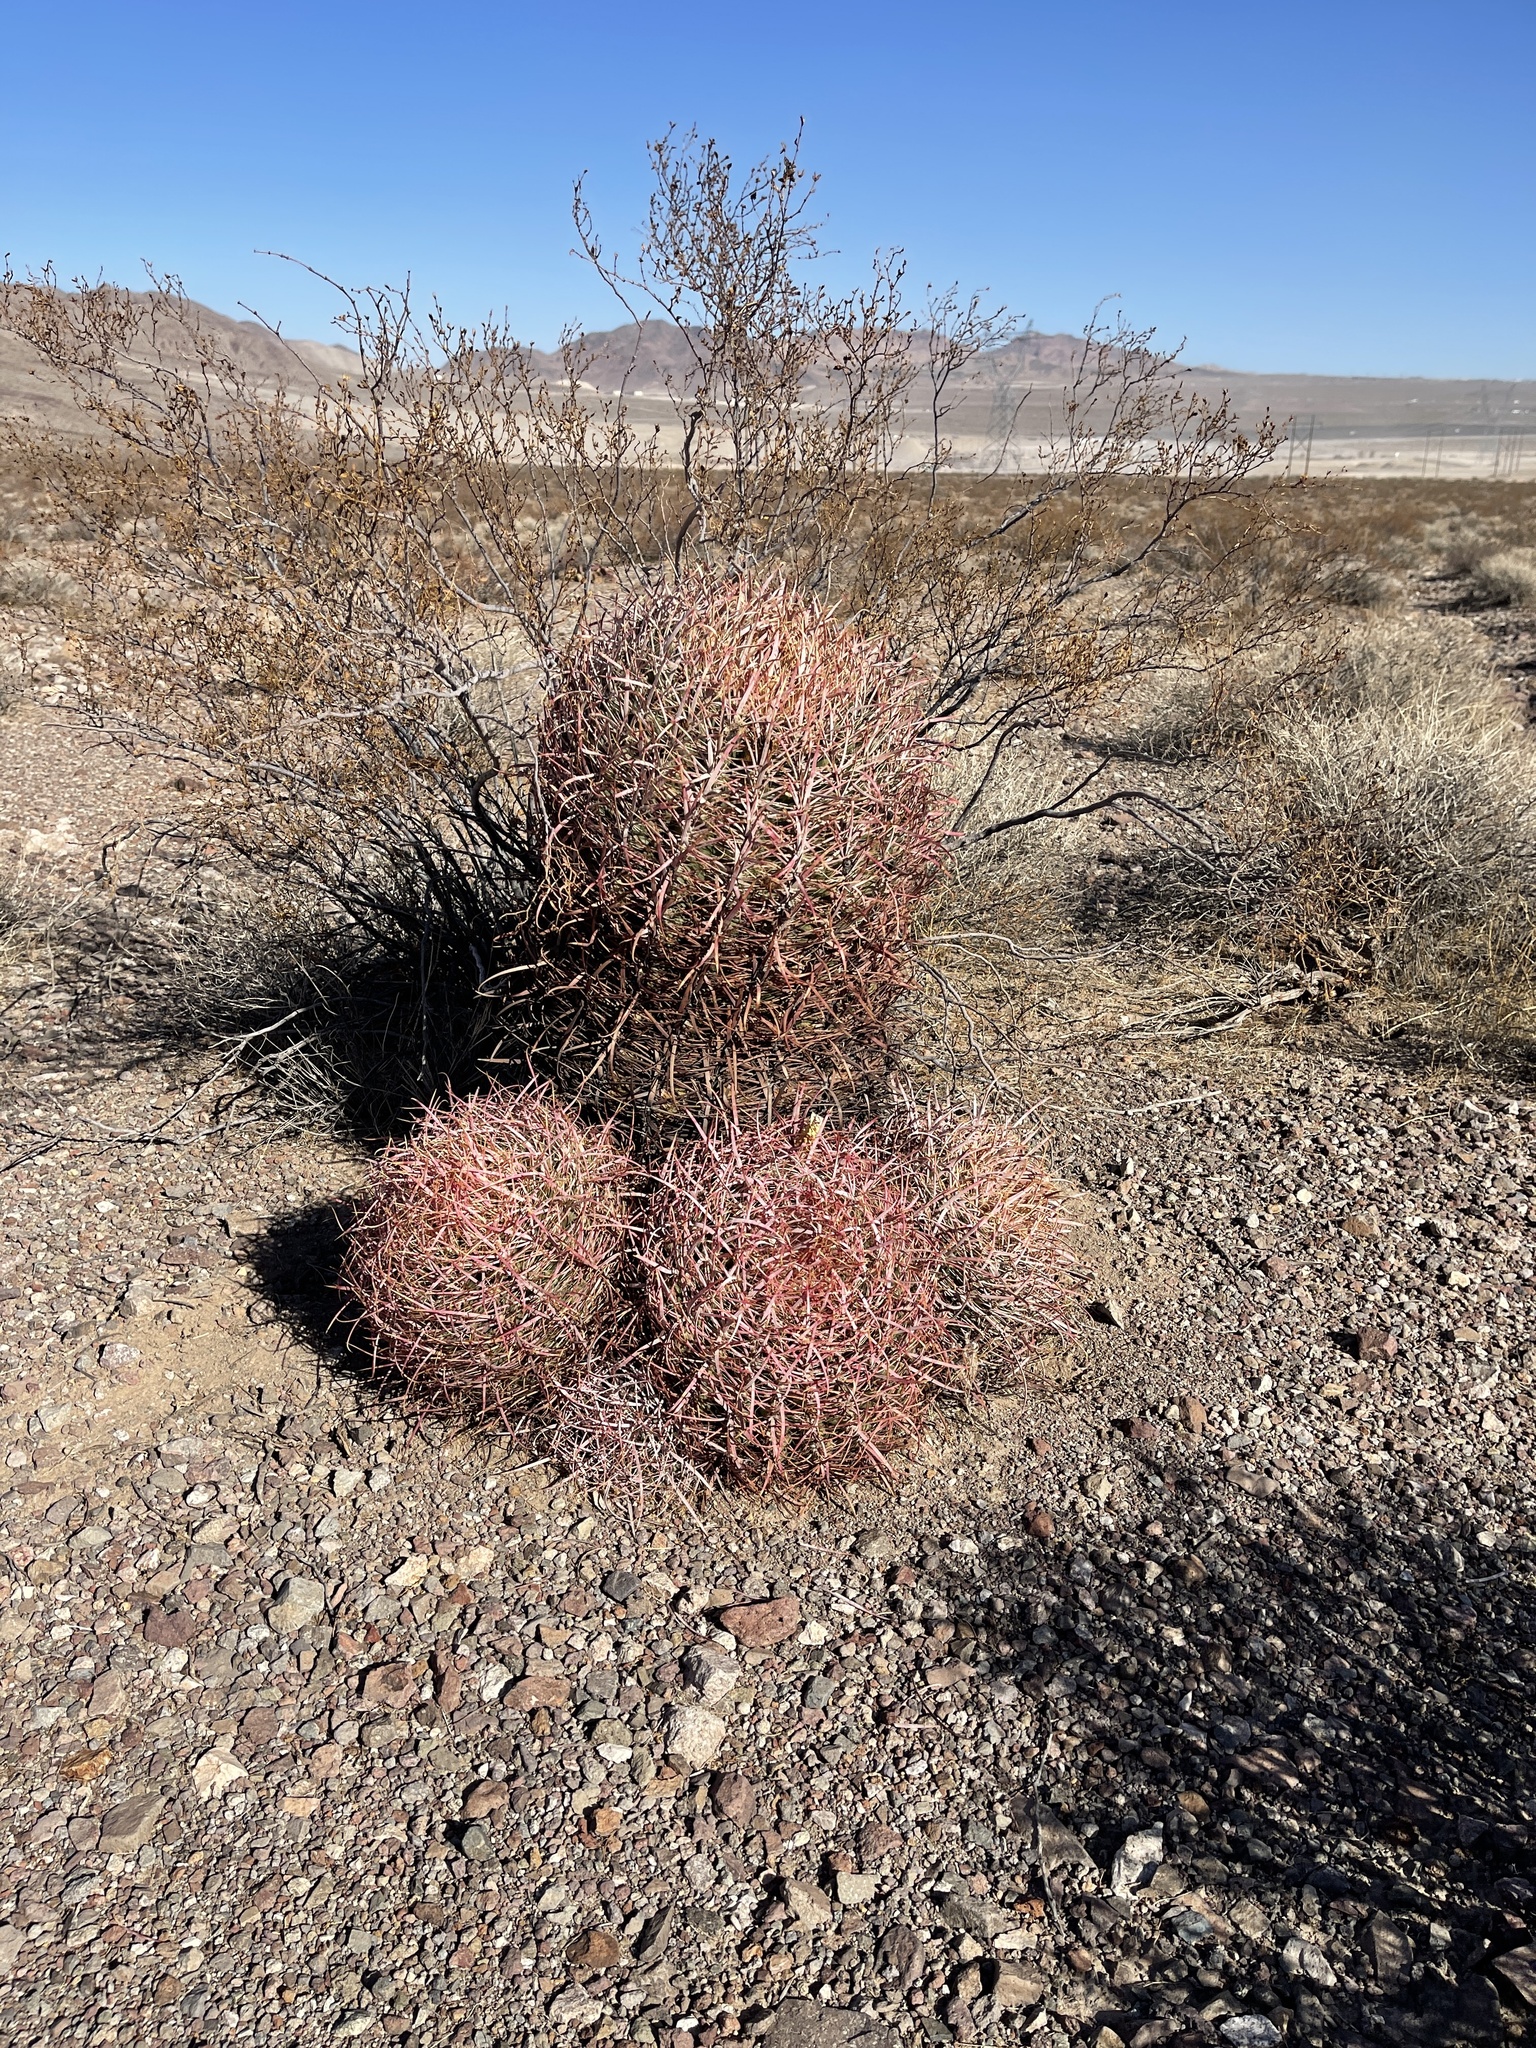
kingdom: Plantae
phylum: Tracheophyta
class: Magnoliopsida
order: Caryophyllales
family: Cactaceae
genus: Ferocactus
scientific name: Ferocactus cylindraceus
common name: California barrel cactus
